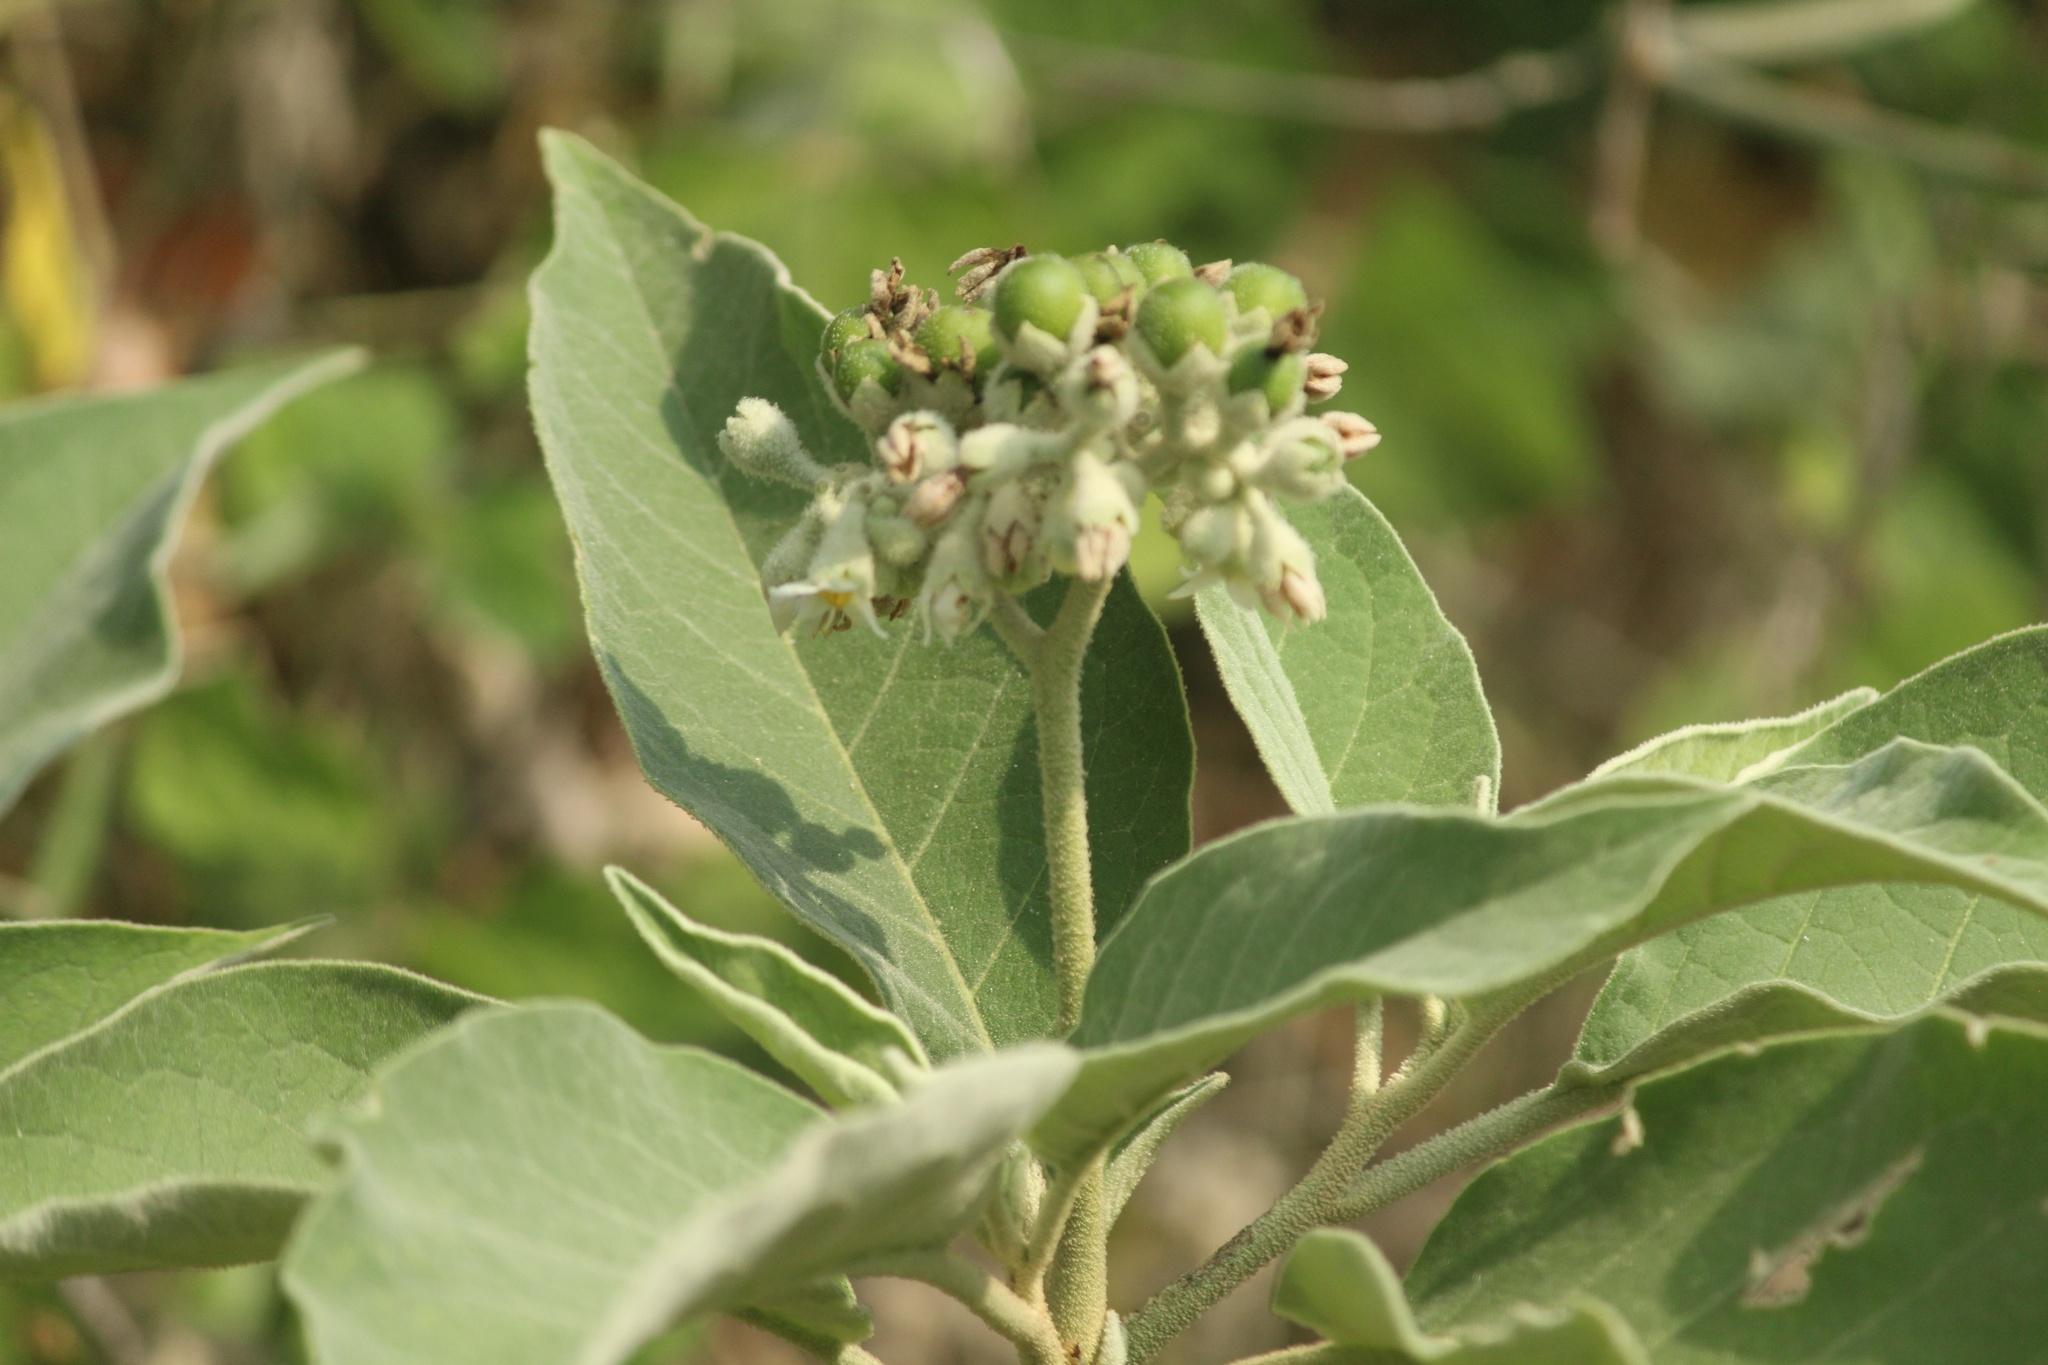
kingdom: Plantae
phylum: Tracheophyta
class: Magnoliopsida
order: Solanales
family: Solanaceae
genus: Solanum
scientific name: Solanum erianthum
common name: Tobacco-tree
